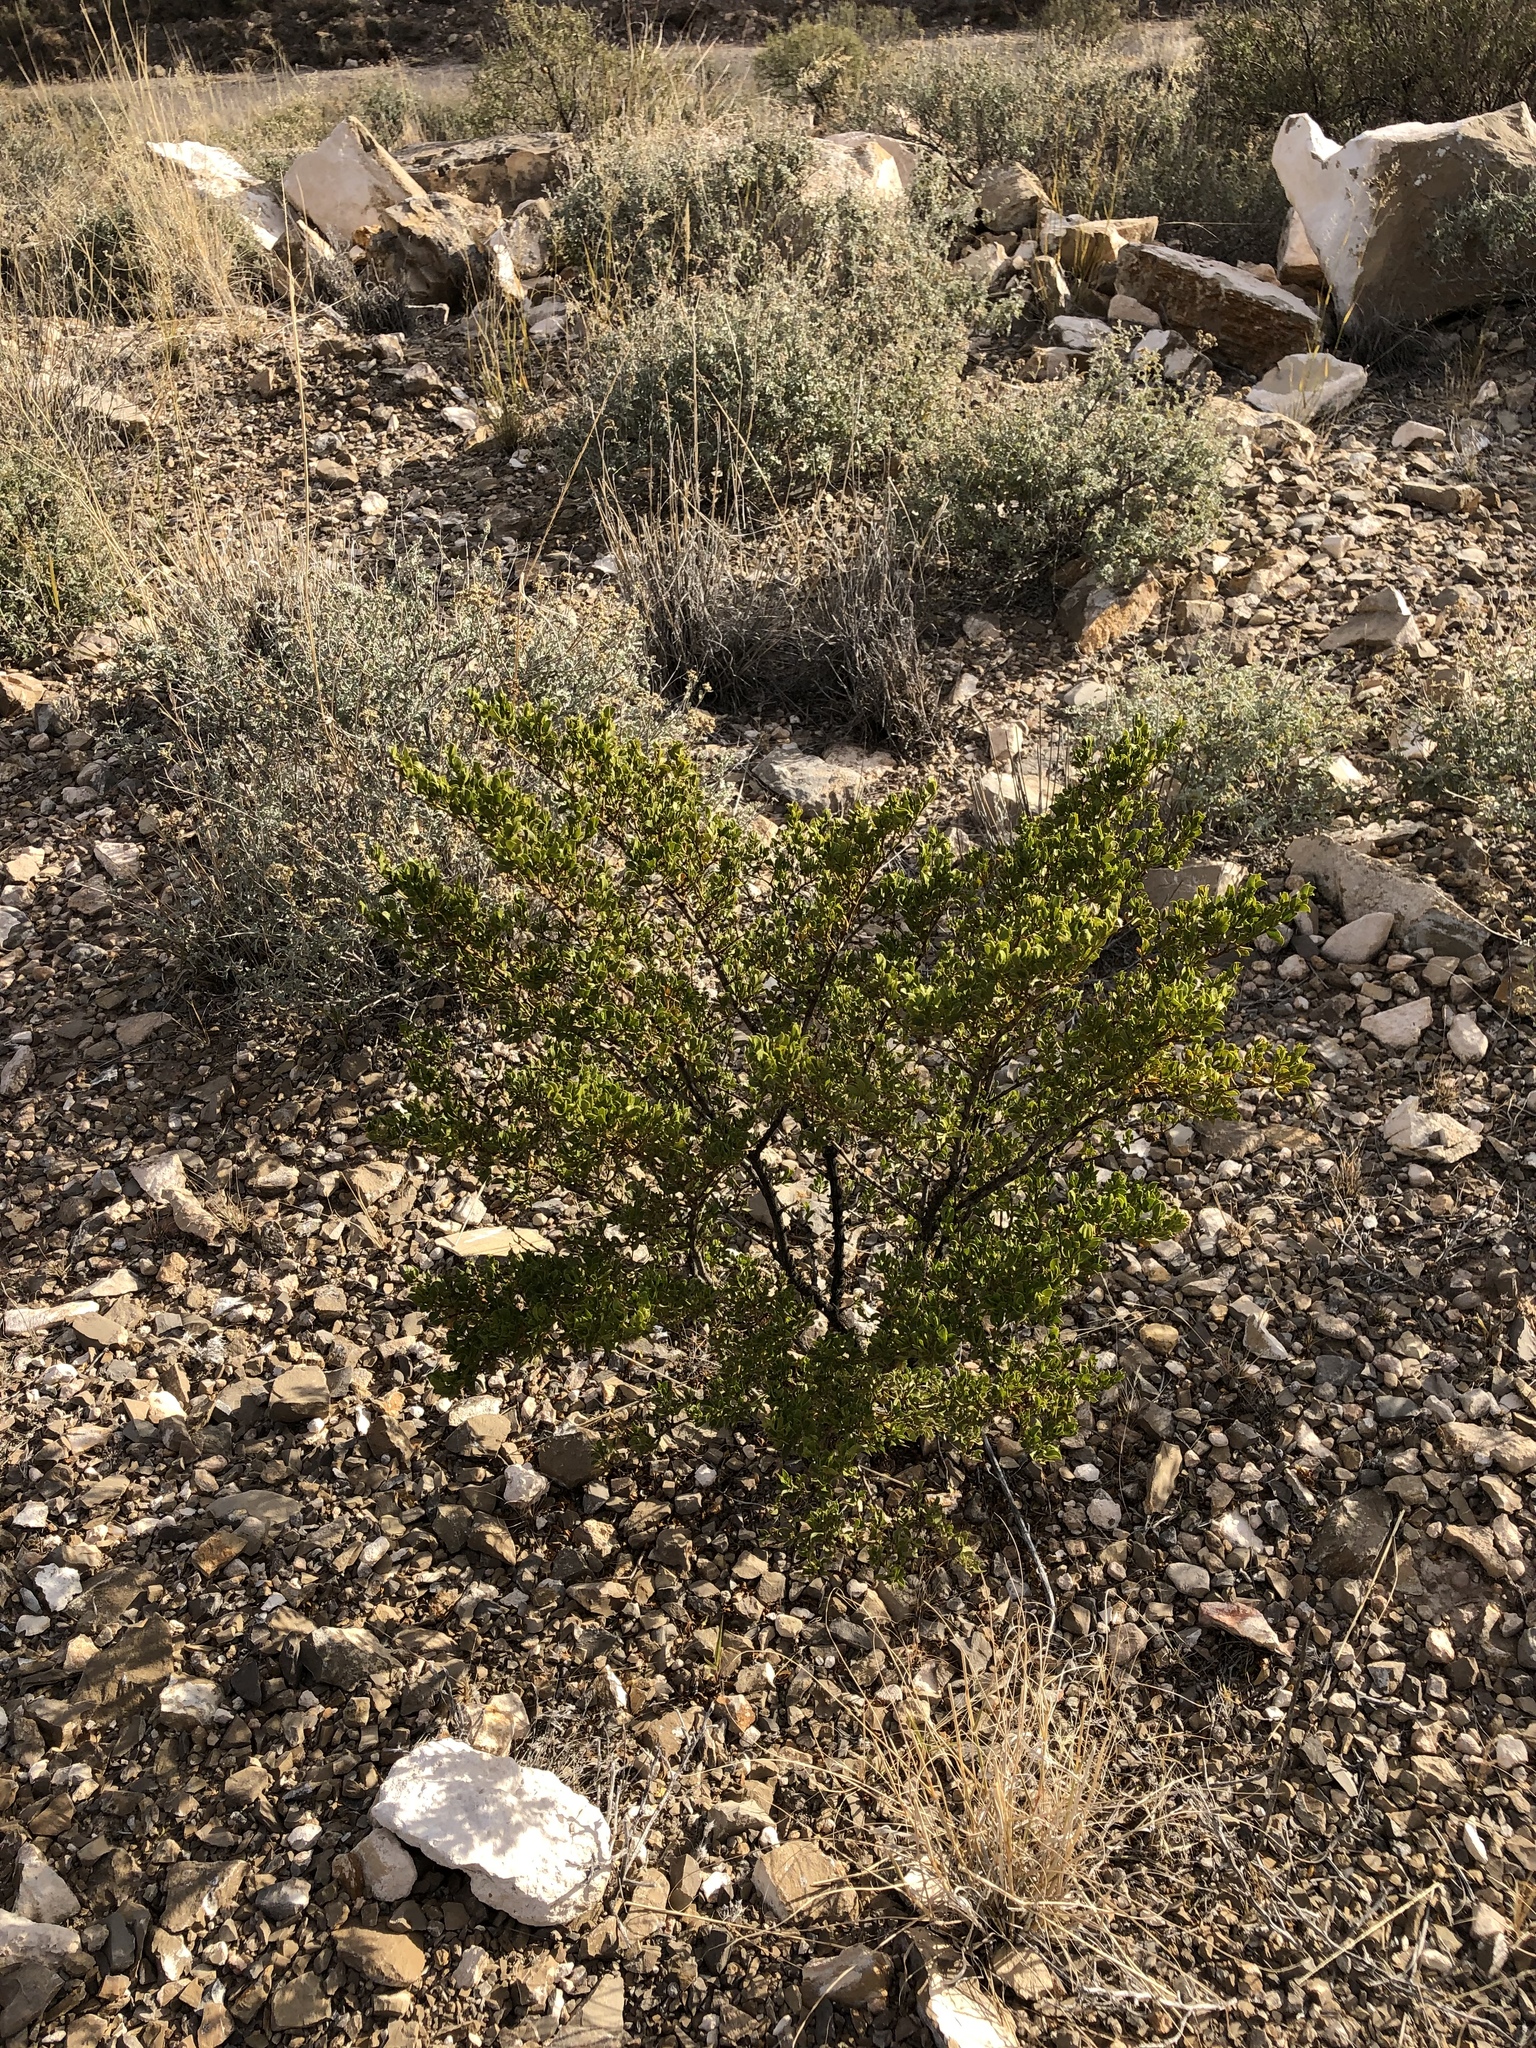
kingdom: Plantae
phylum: Tracheophyta
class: Magnoliopsida
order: Zygophyllales
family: Zygophyllaceae
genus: Larrea
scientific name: Larrea tridentata
